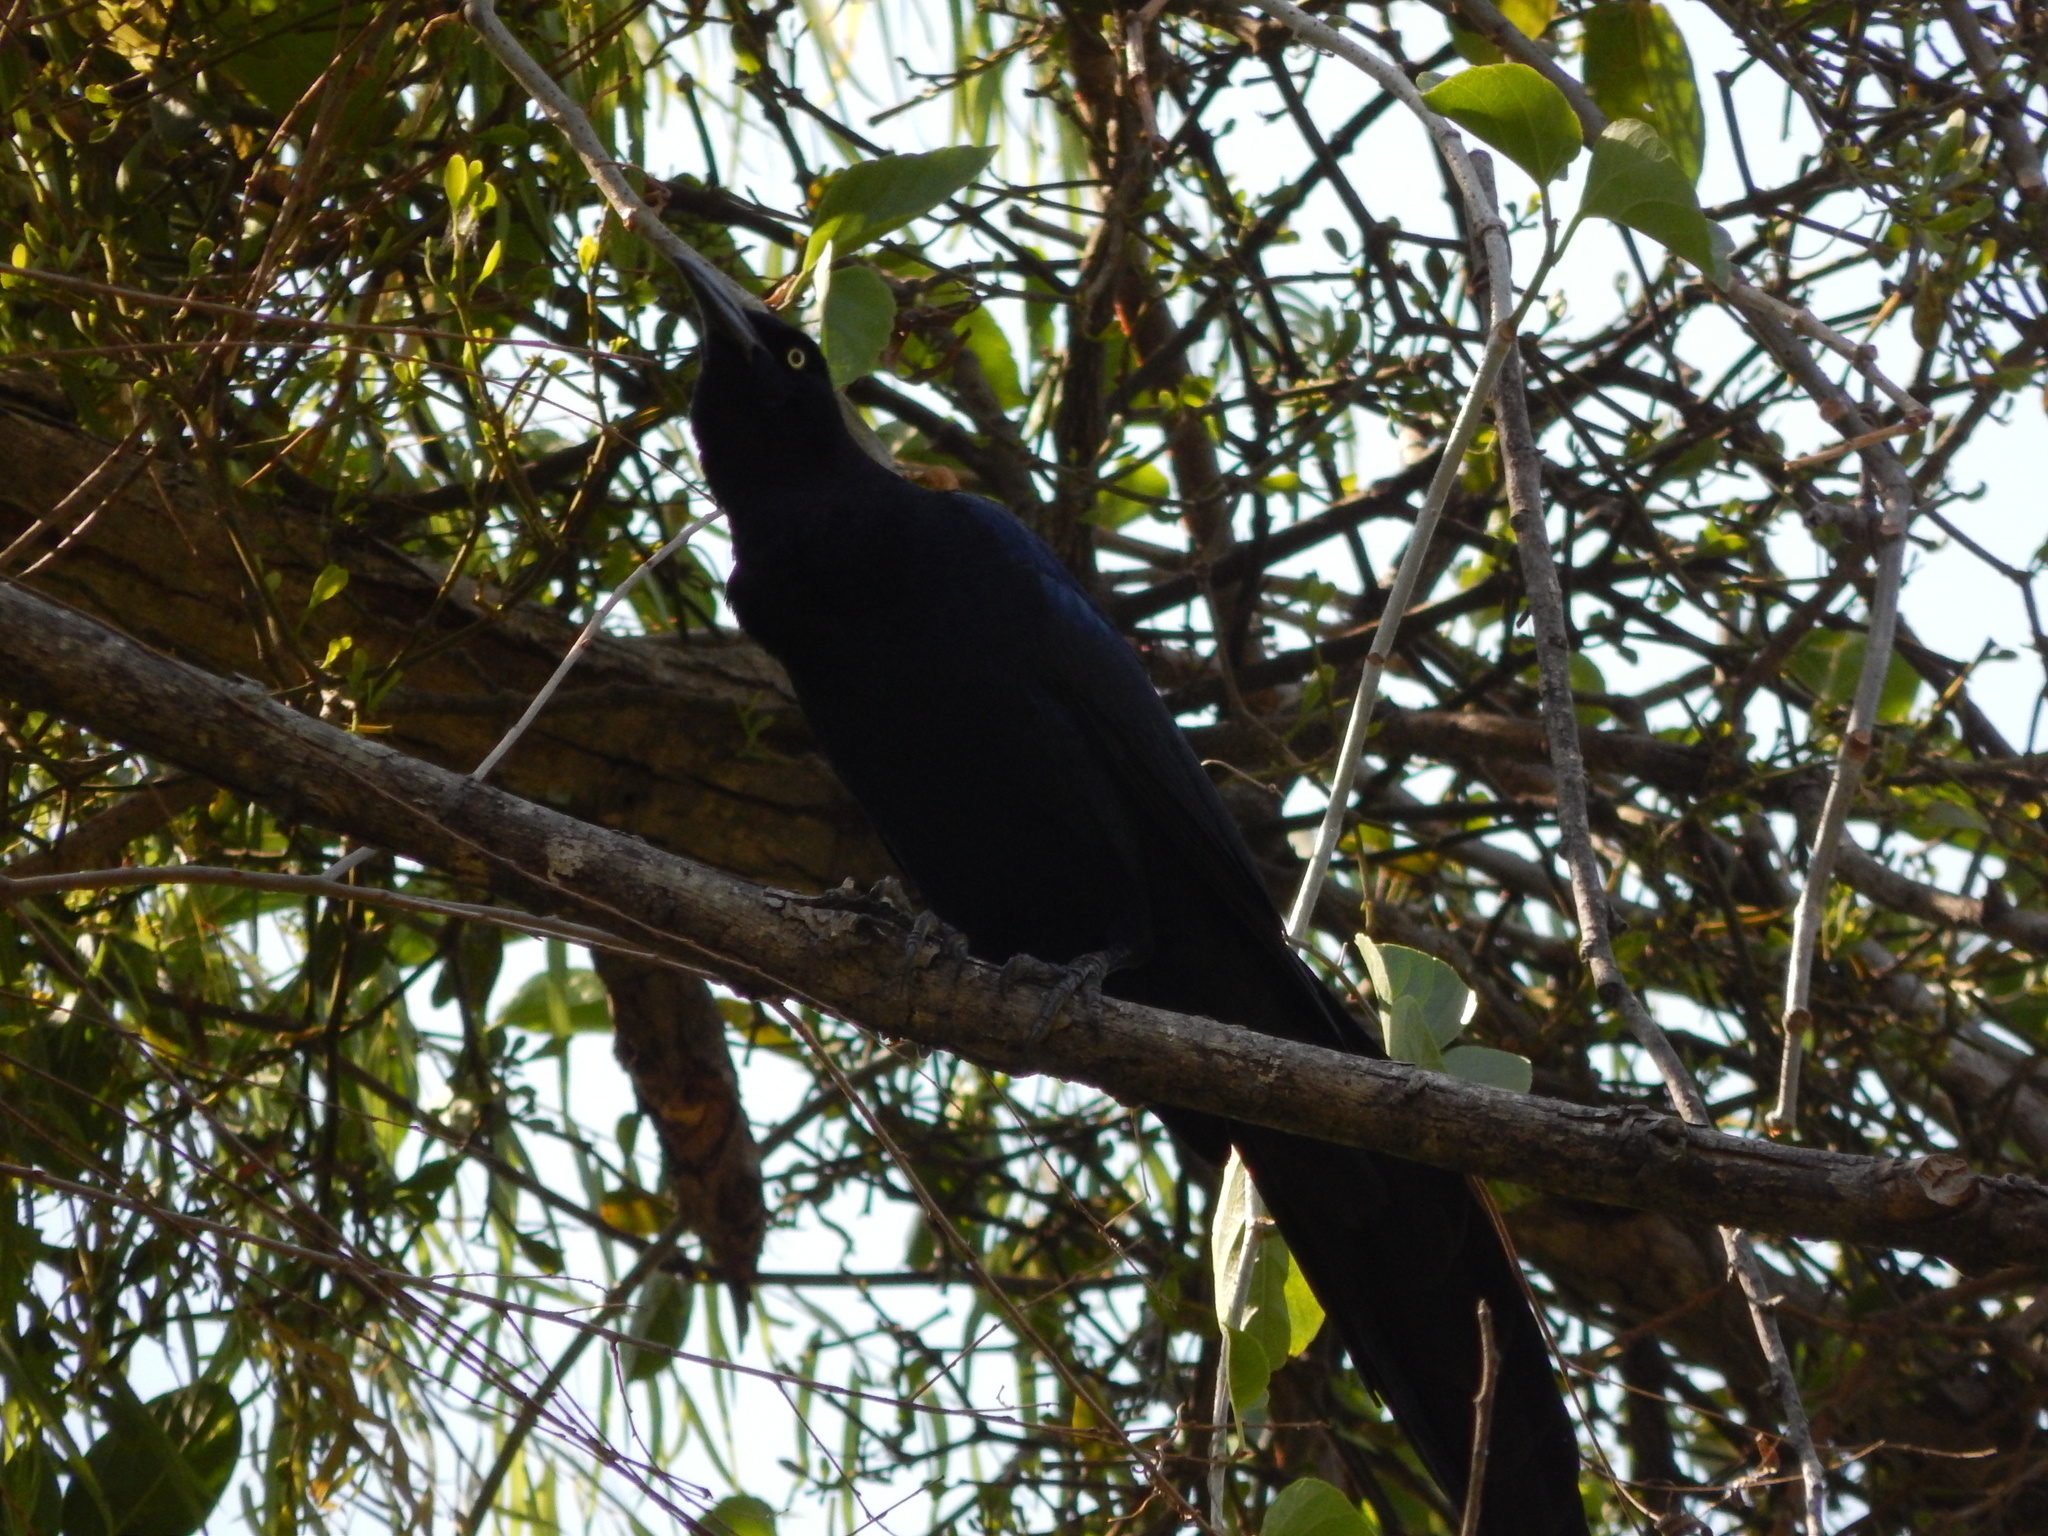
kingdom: Animalia
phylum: Chordata
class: Aves
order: Passeriformes
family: Icteridae
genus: Quiscalus
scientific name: Quiscalus mexicanus
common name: Great-tailed grackle
